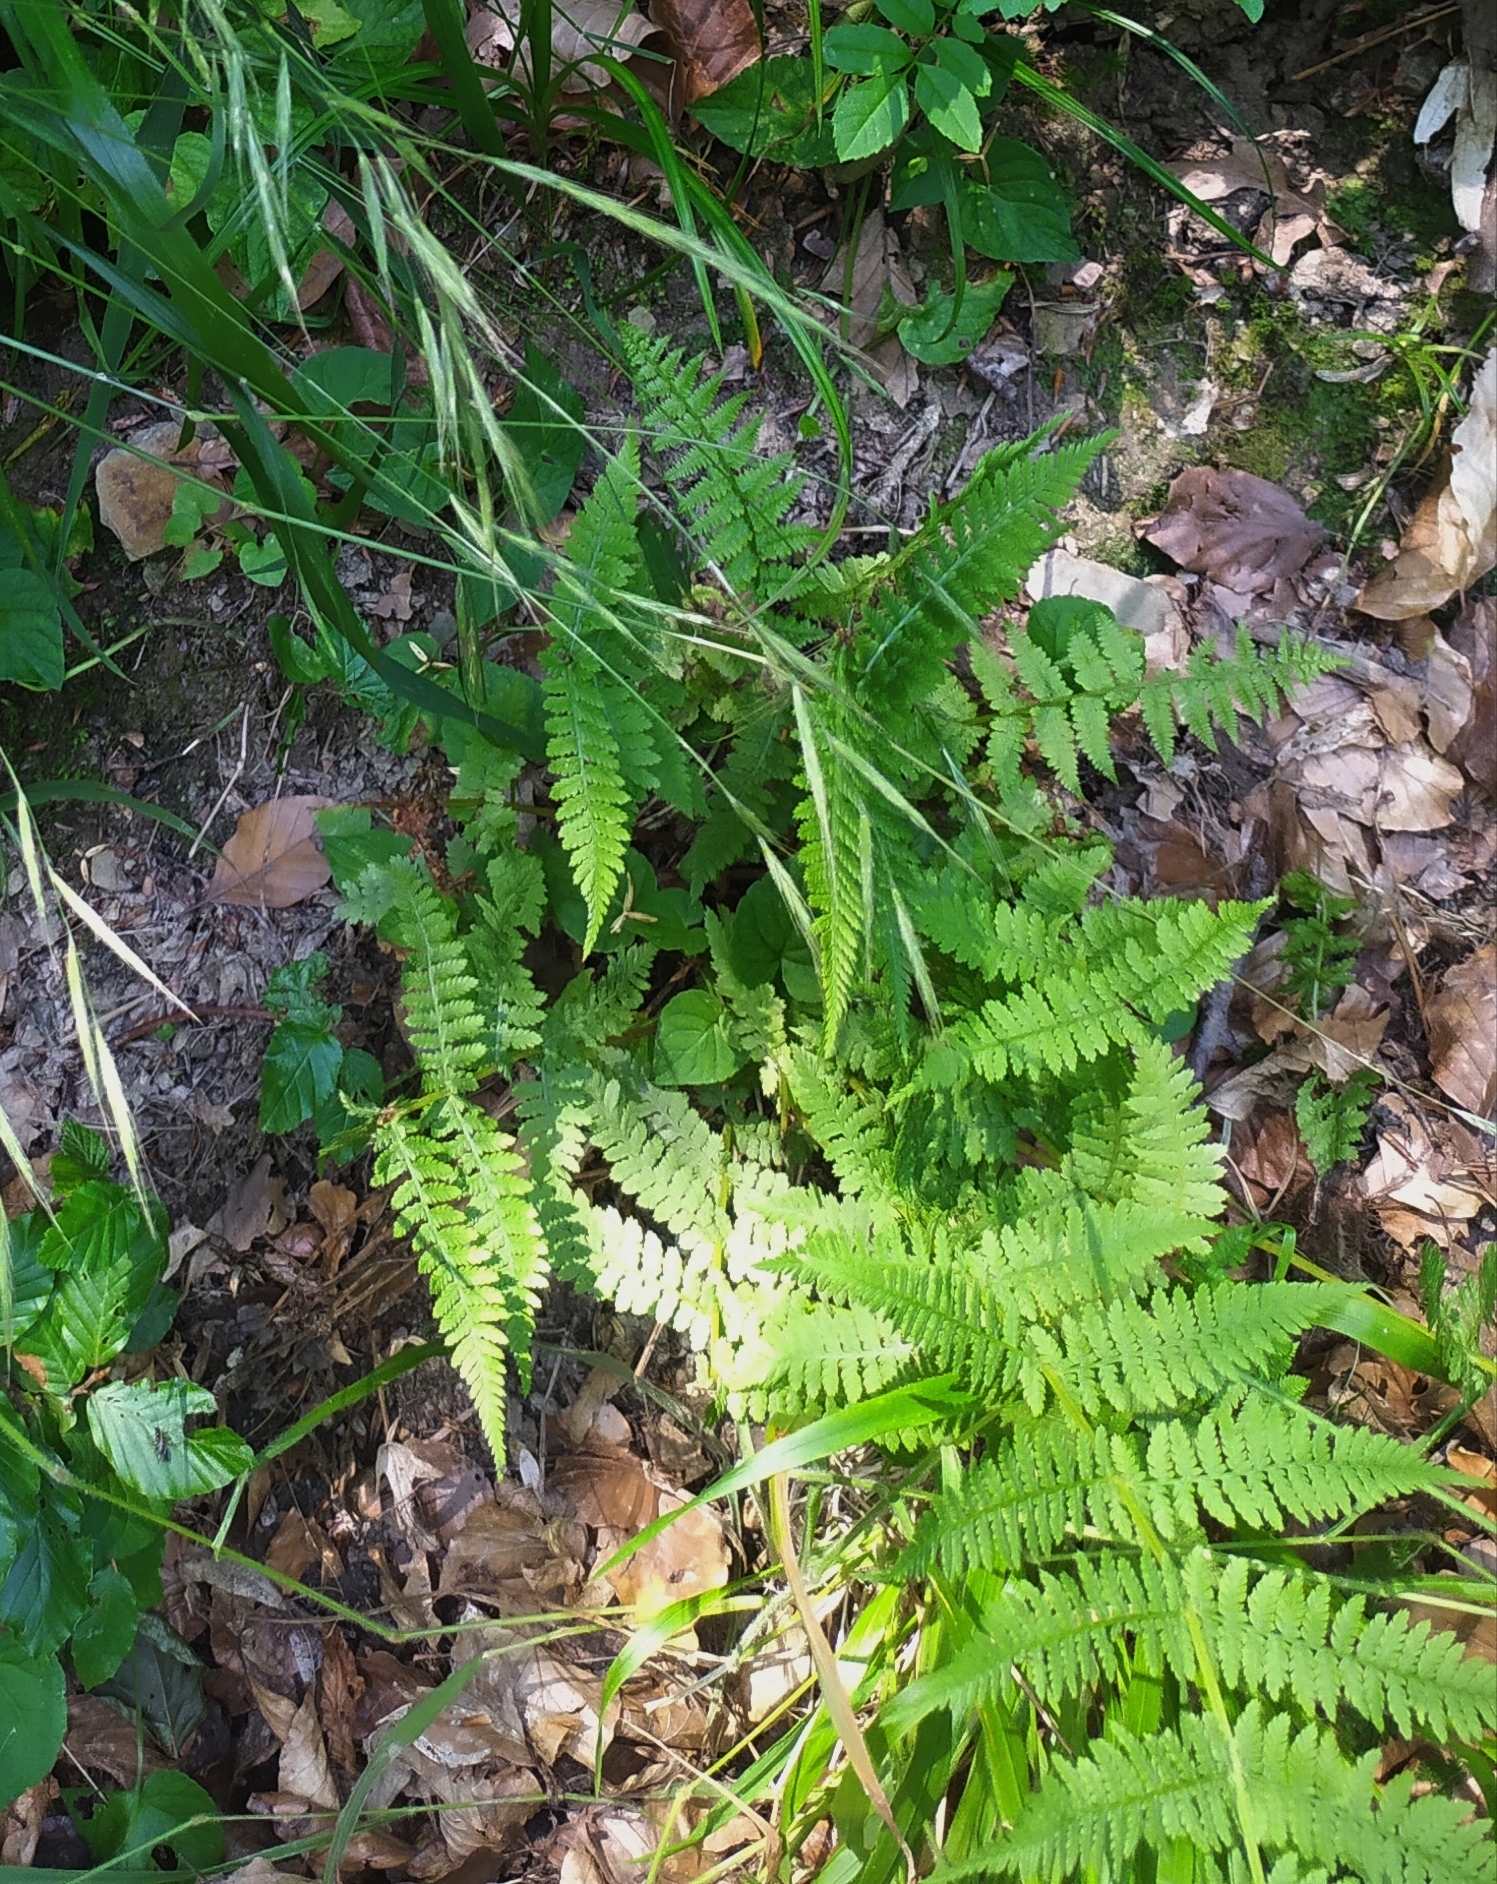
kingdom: Plantae
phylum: Tracheophyta
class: Polypodiopsida
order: Polypodiales
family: Athyriaceae
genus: Athyrium
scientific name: Athyrium filix-femina
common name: Lady fern
